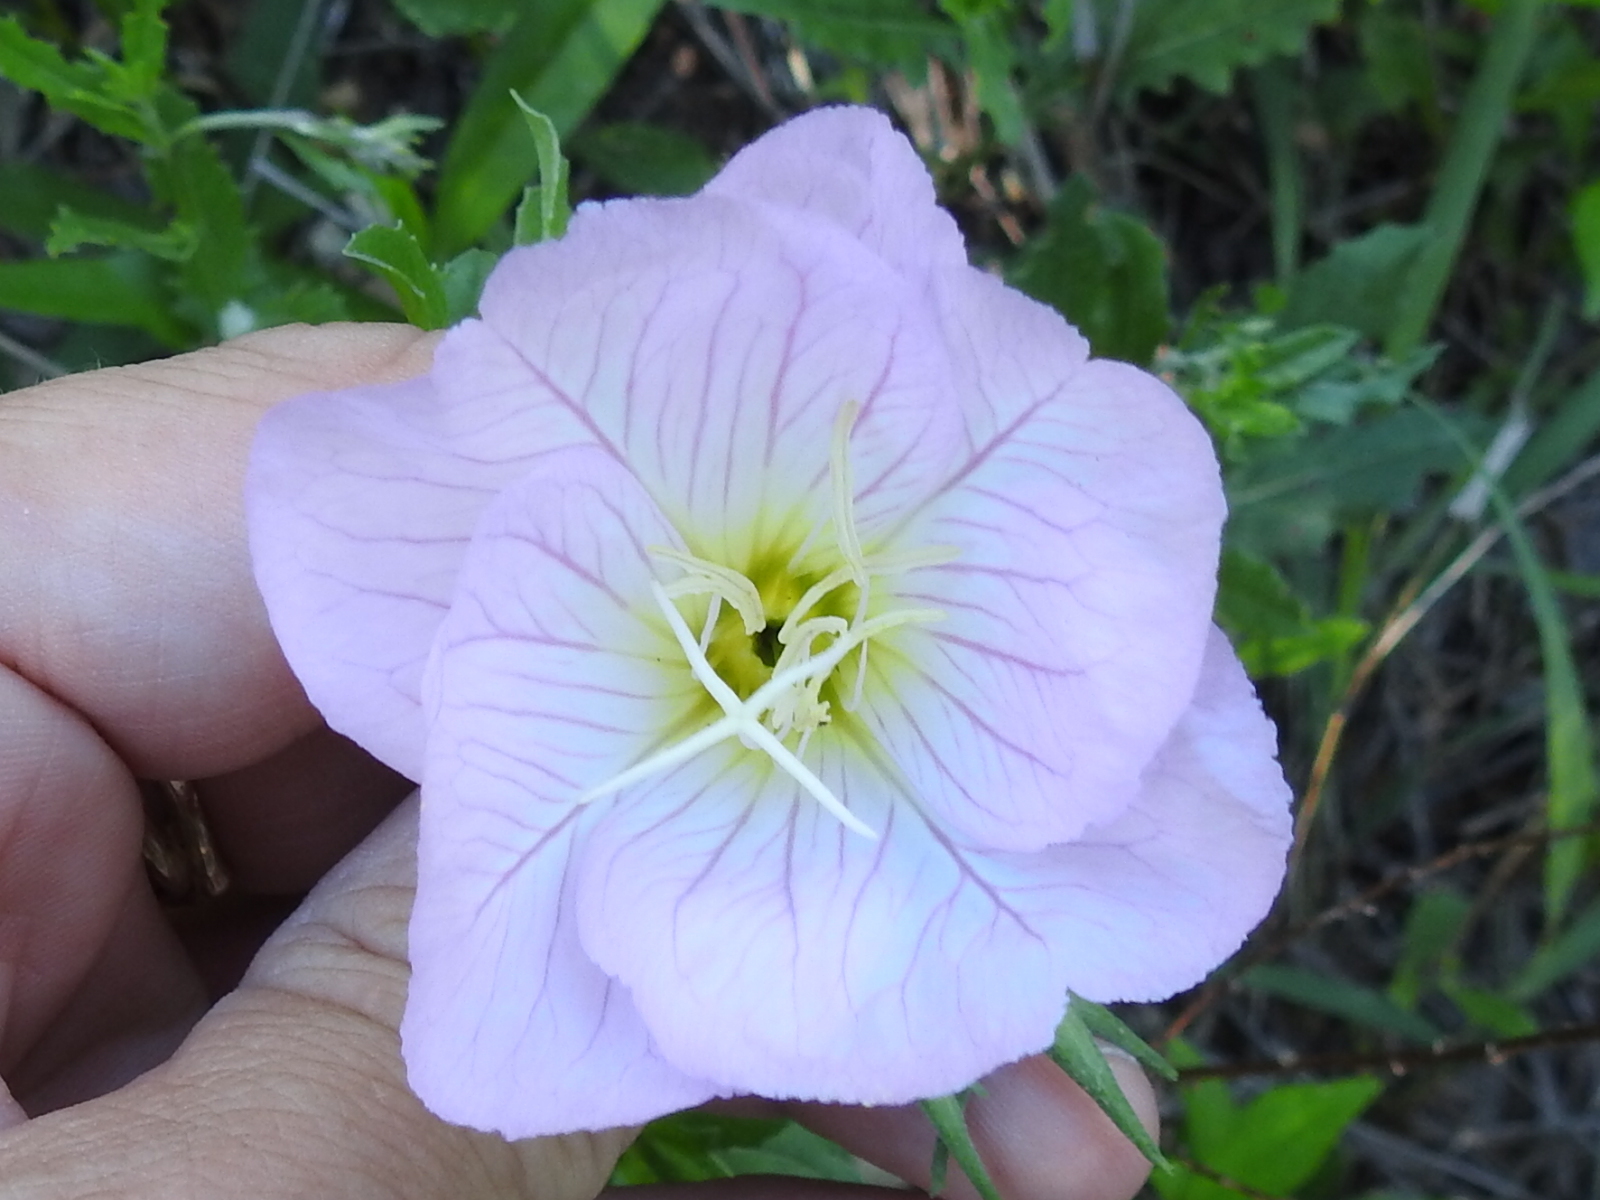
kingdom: Plantae
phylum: Tracheophyta
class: Magnoliopsida
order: Myrtales
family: Onagraceae
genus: Oenothera
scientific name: Oenothera speciosa
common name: White evening-primrose
